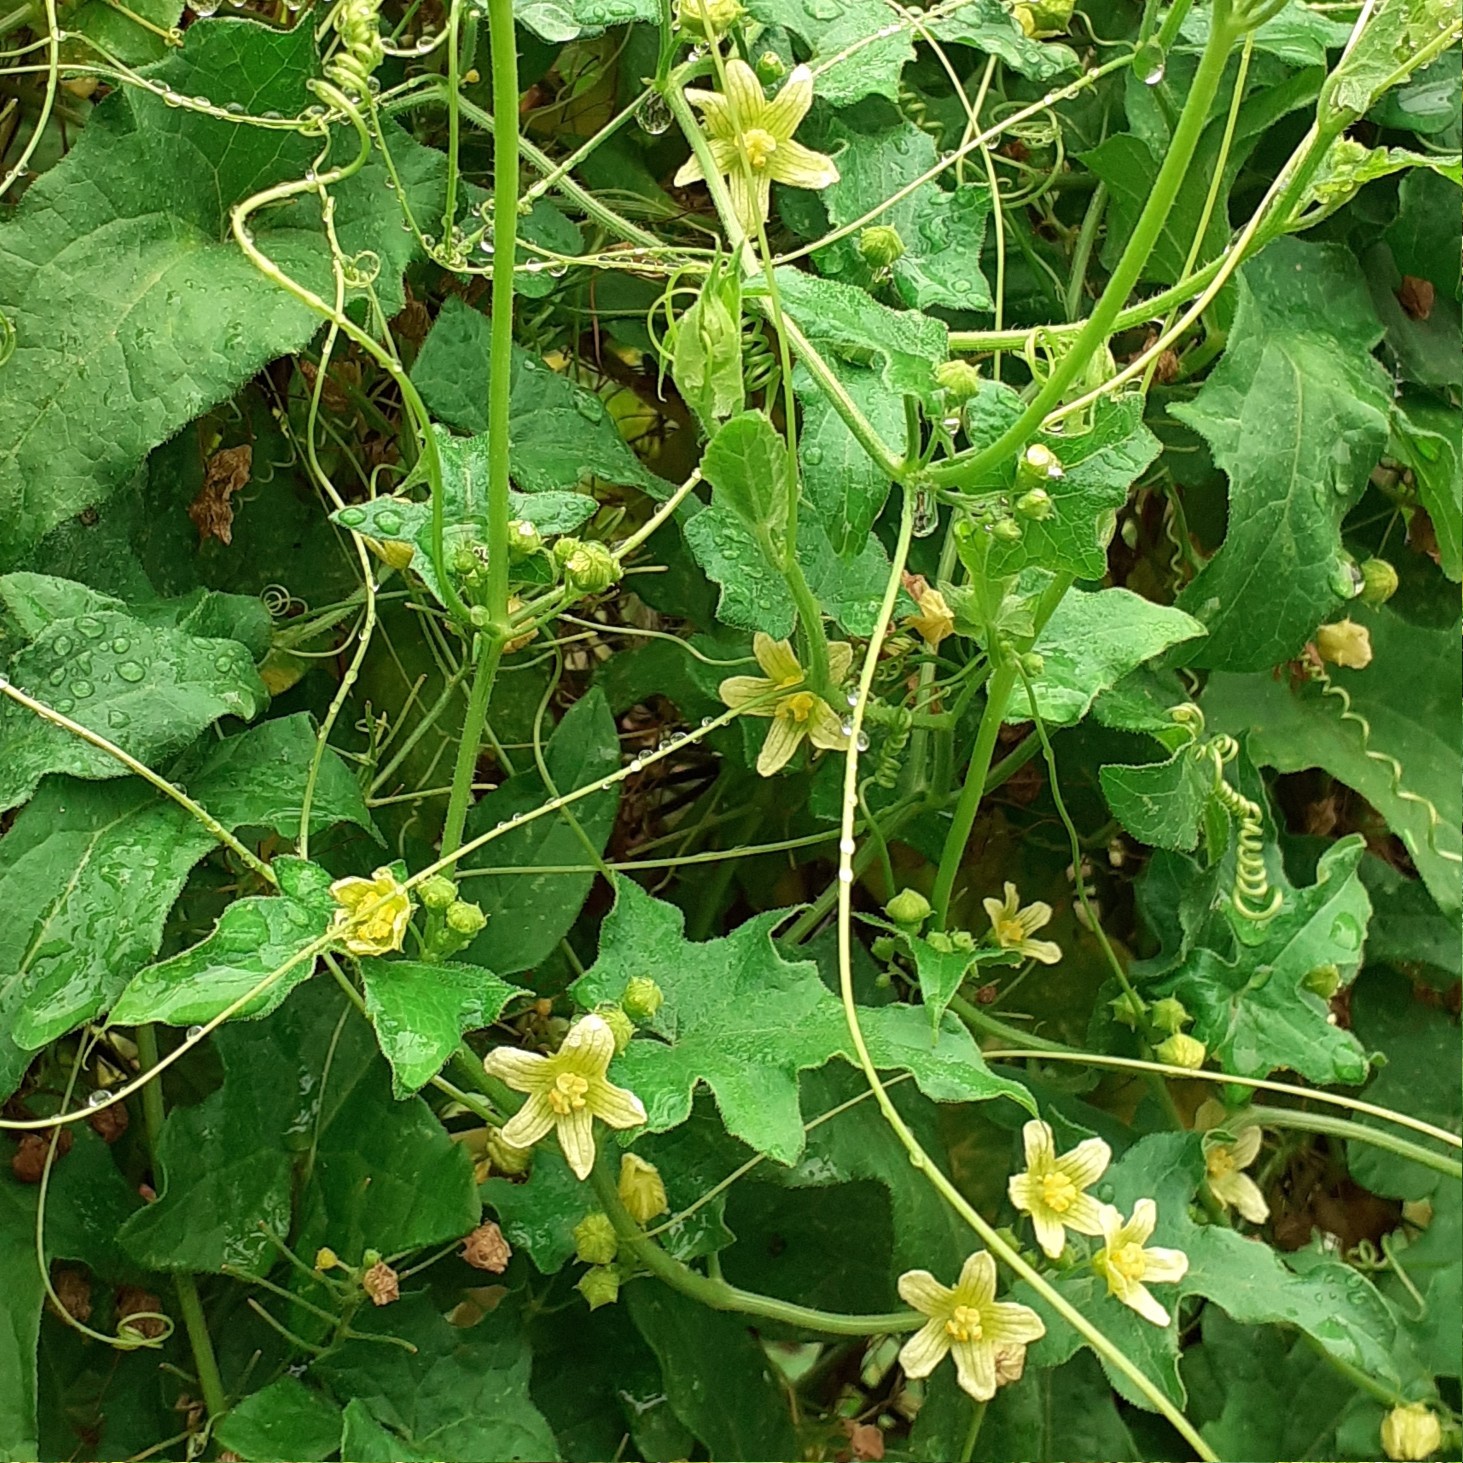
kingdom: Plantae
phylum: Tracheophyta
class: Magnoliopsida
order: Cucurbitales
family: Cucurbitaceae
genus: Bryonia
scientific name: Bryonia cretica
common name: Cretan bryony
